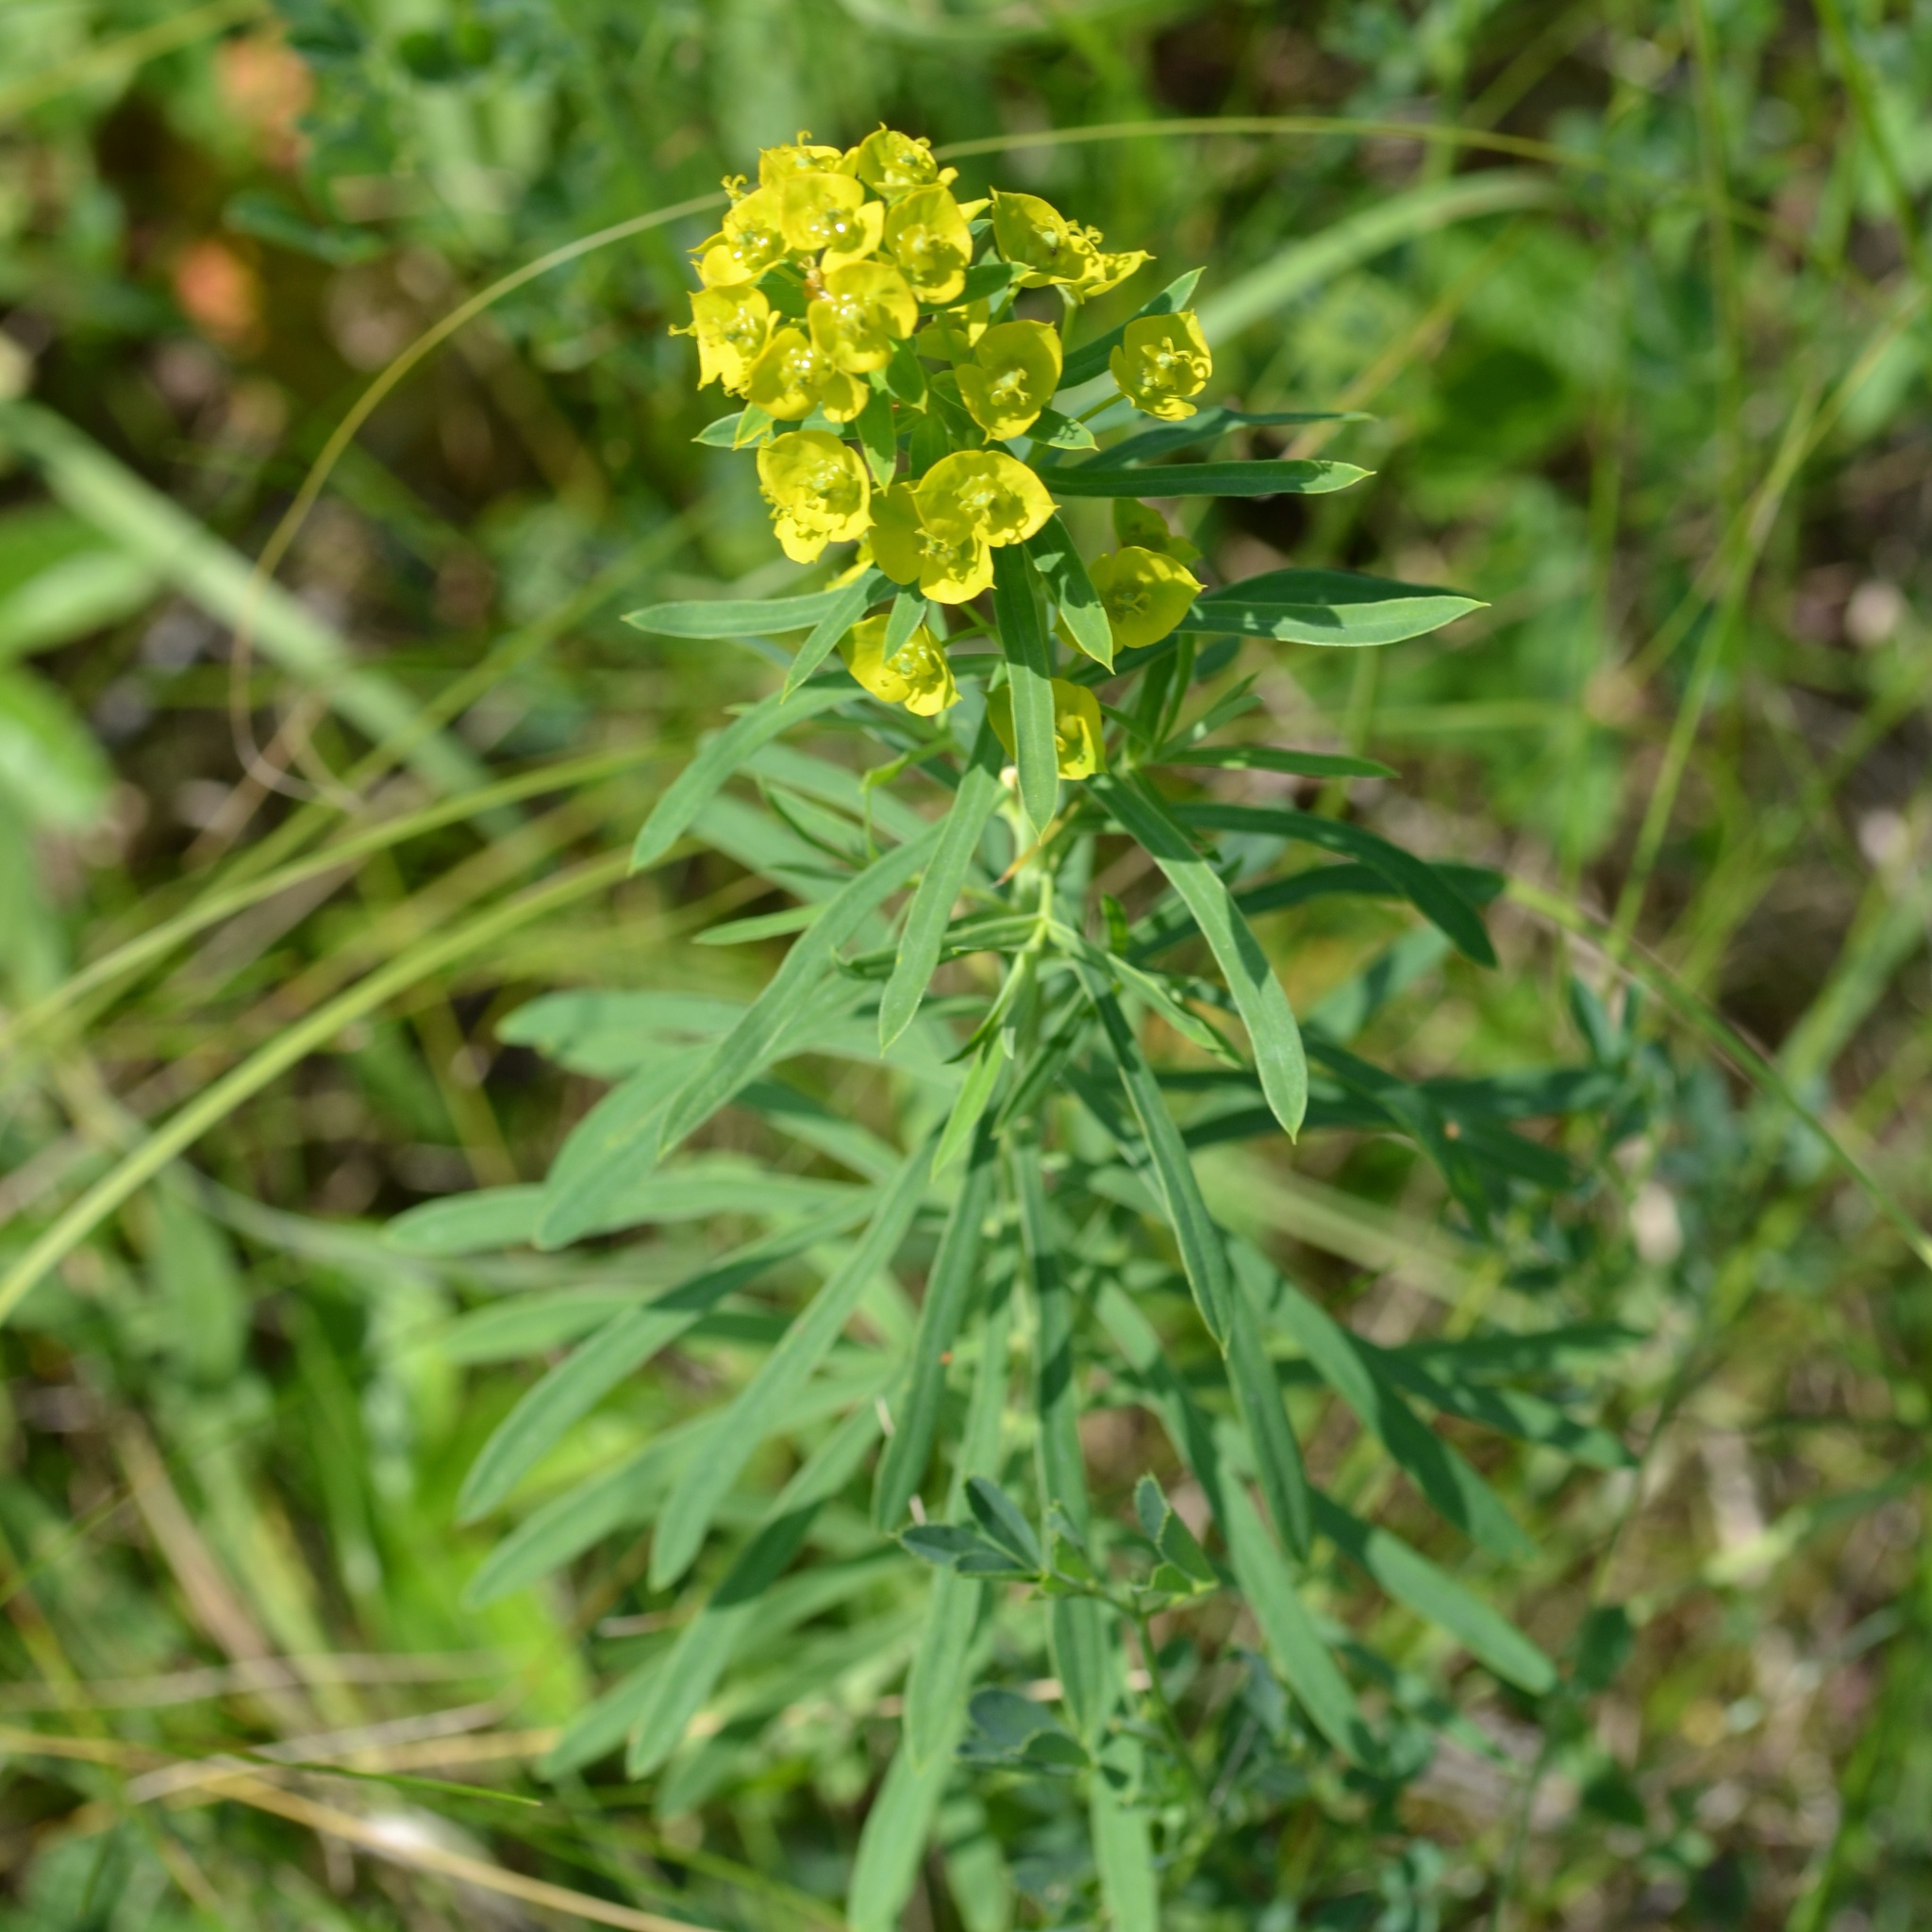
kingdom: Plantae
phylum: Tracheophyta
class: Magnoliopsida
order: Malpighiales
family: Euphorbiaceae
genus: Euphorbia
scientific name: Euphorbia esula
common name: Leafy spurge
